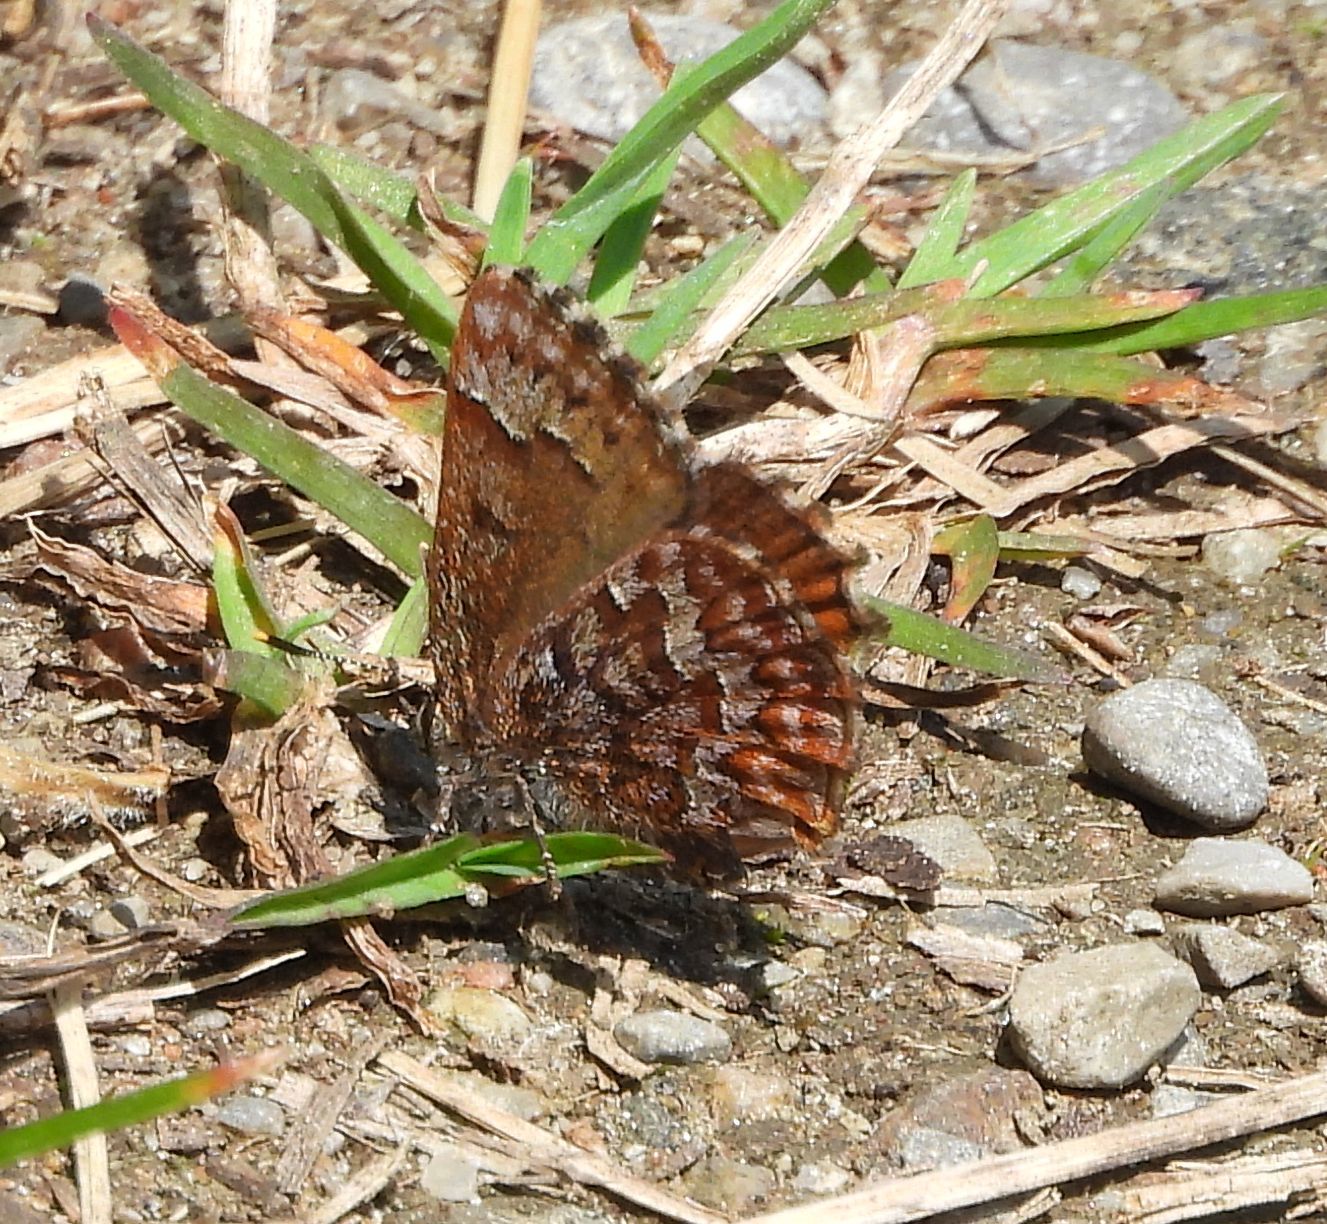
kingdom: Animalia
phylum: Arthropoda
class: Insecta
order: Lepidoptera
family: Lycaenidae
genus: Incisalia
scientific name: Incisalia niphon
